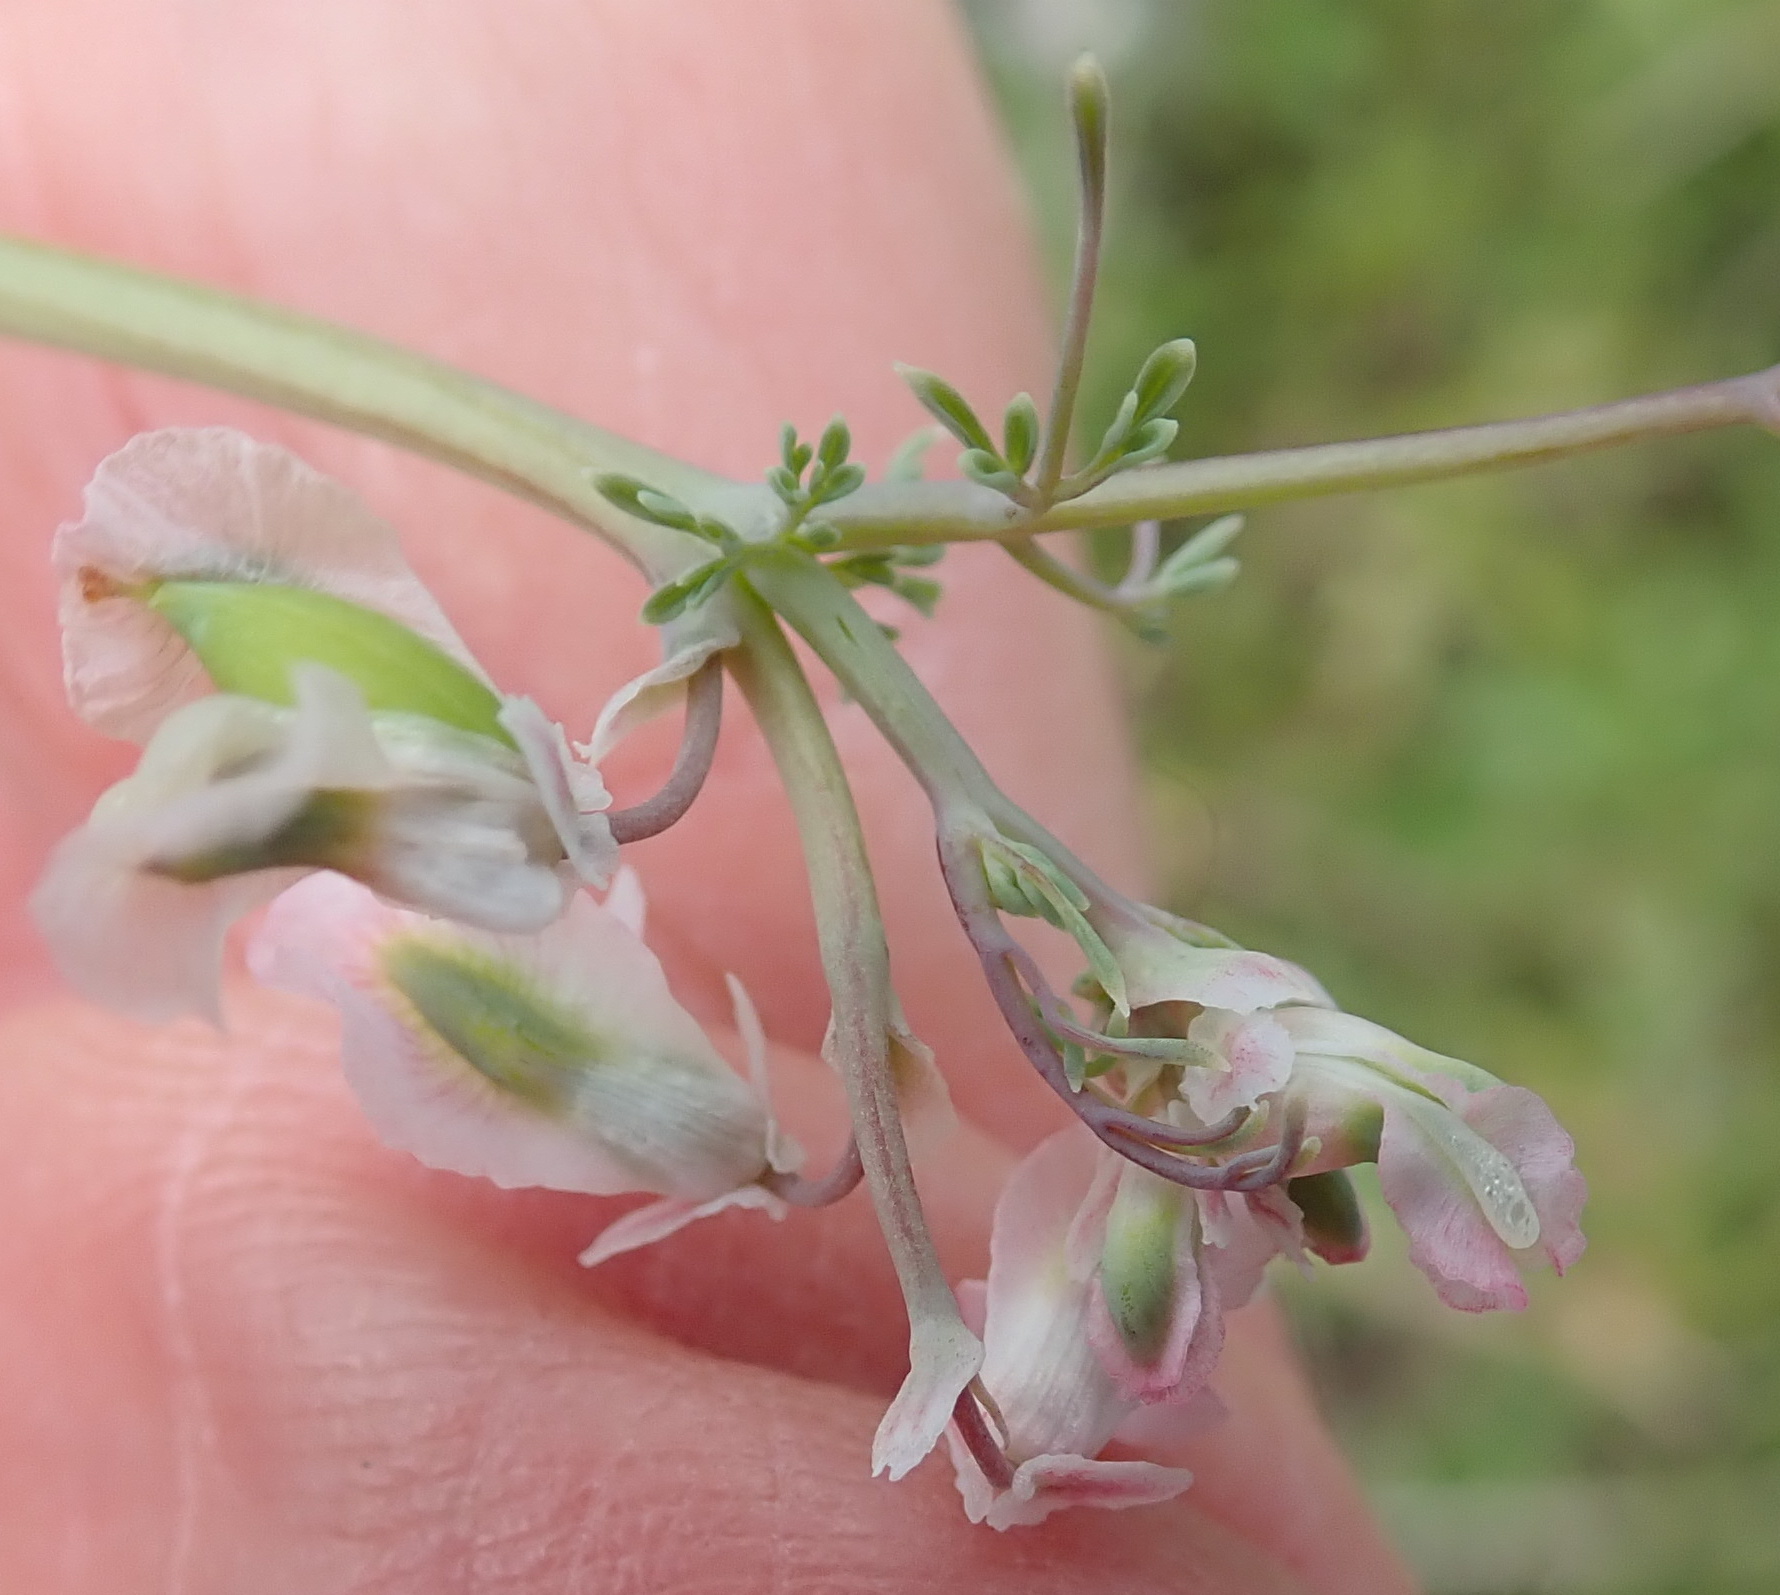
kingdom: Plantae
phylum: Tracheophyta
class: Magnoliopsida
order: Ranunculales
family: Papaveraceae
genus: Cysticapnos
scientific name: Cysticapnos vesicaria
